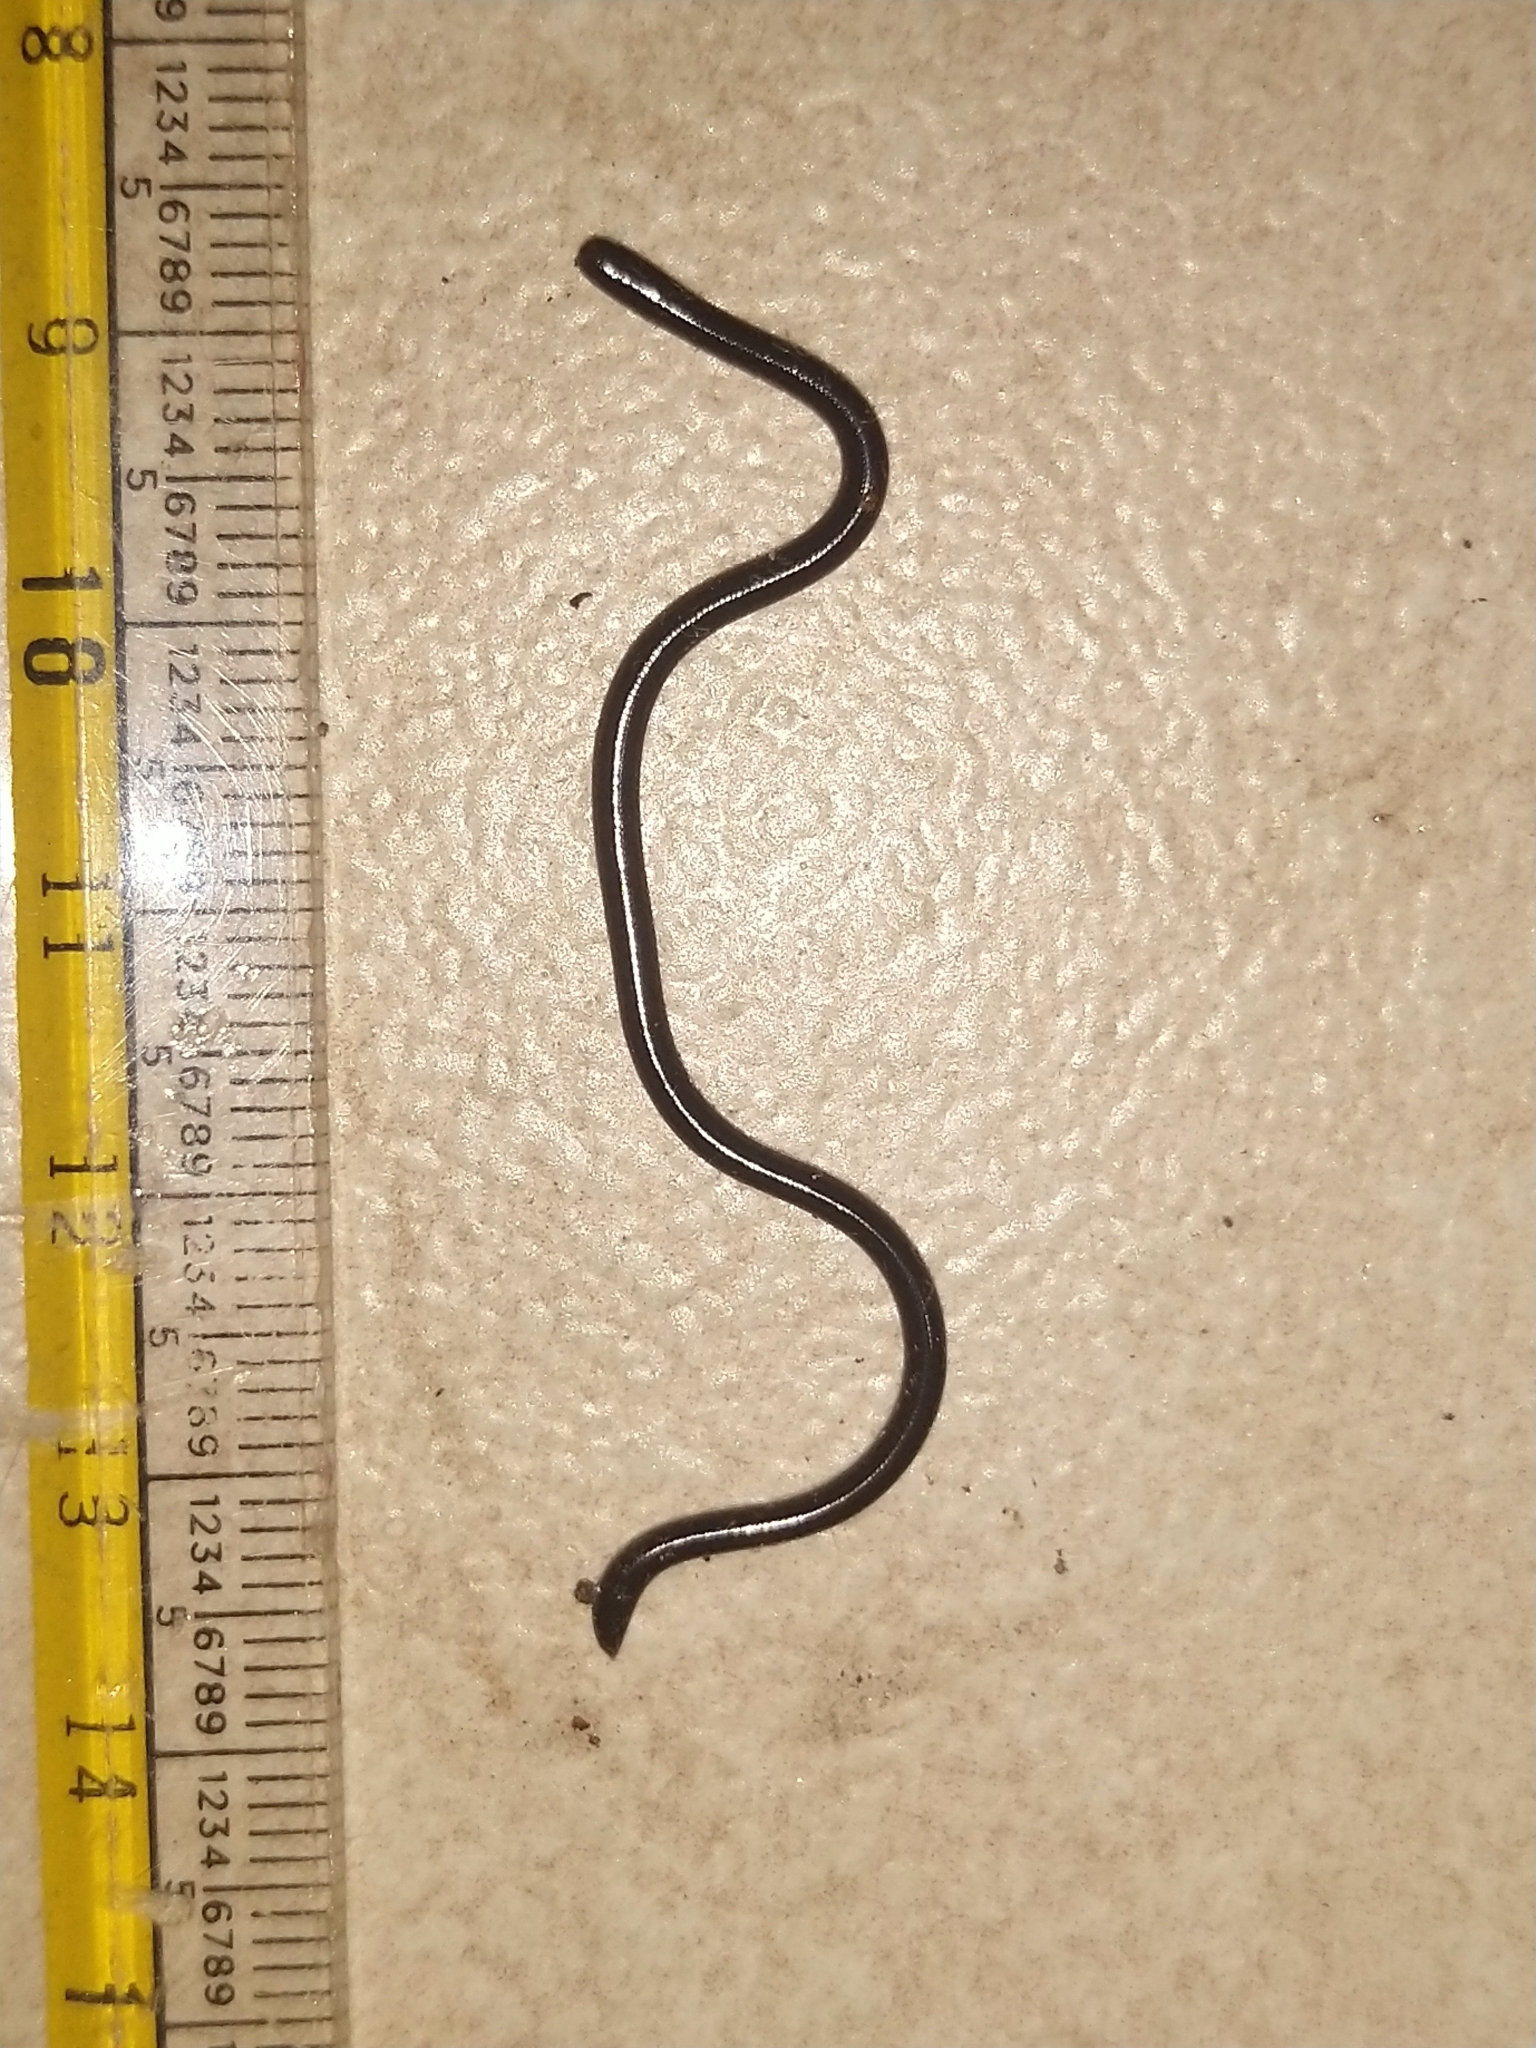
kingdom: Animalia
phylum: Chordata
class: Squamata
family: Typhlopidae
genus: Indotyphlops
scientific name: Indotyphlops braminus
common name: Brahminy blindsnake
